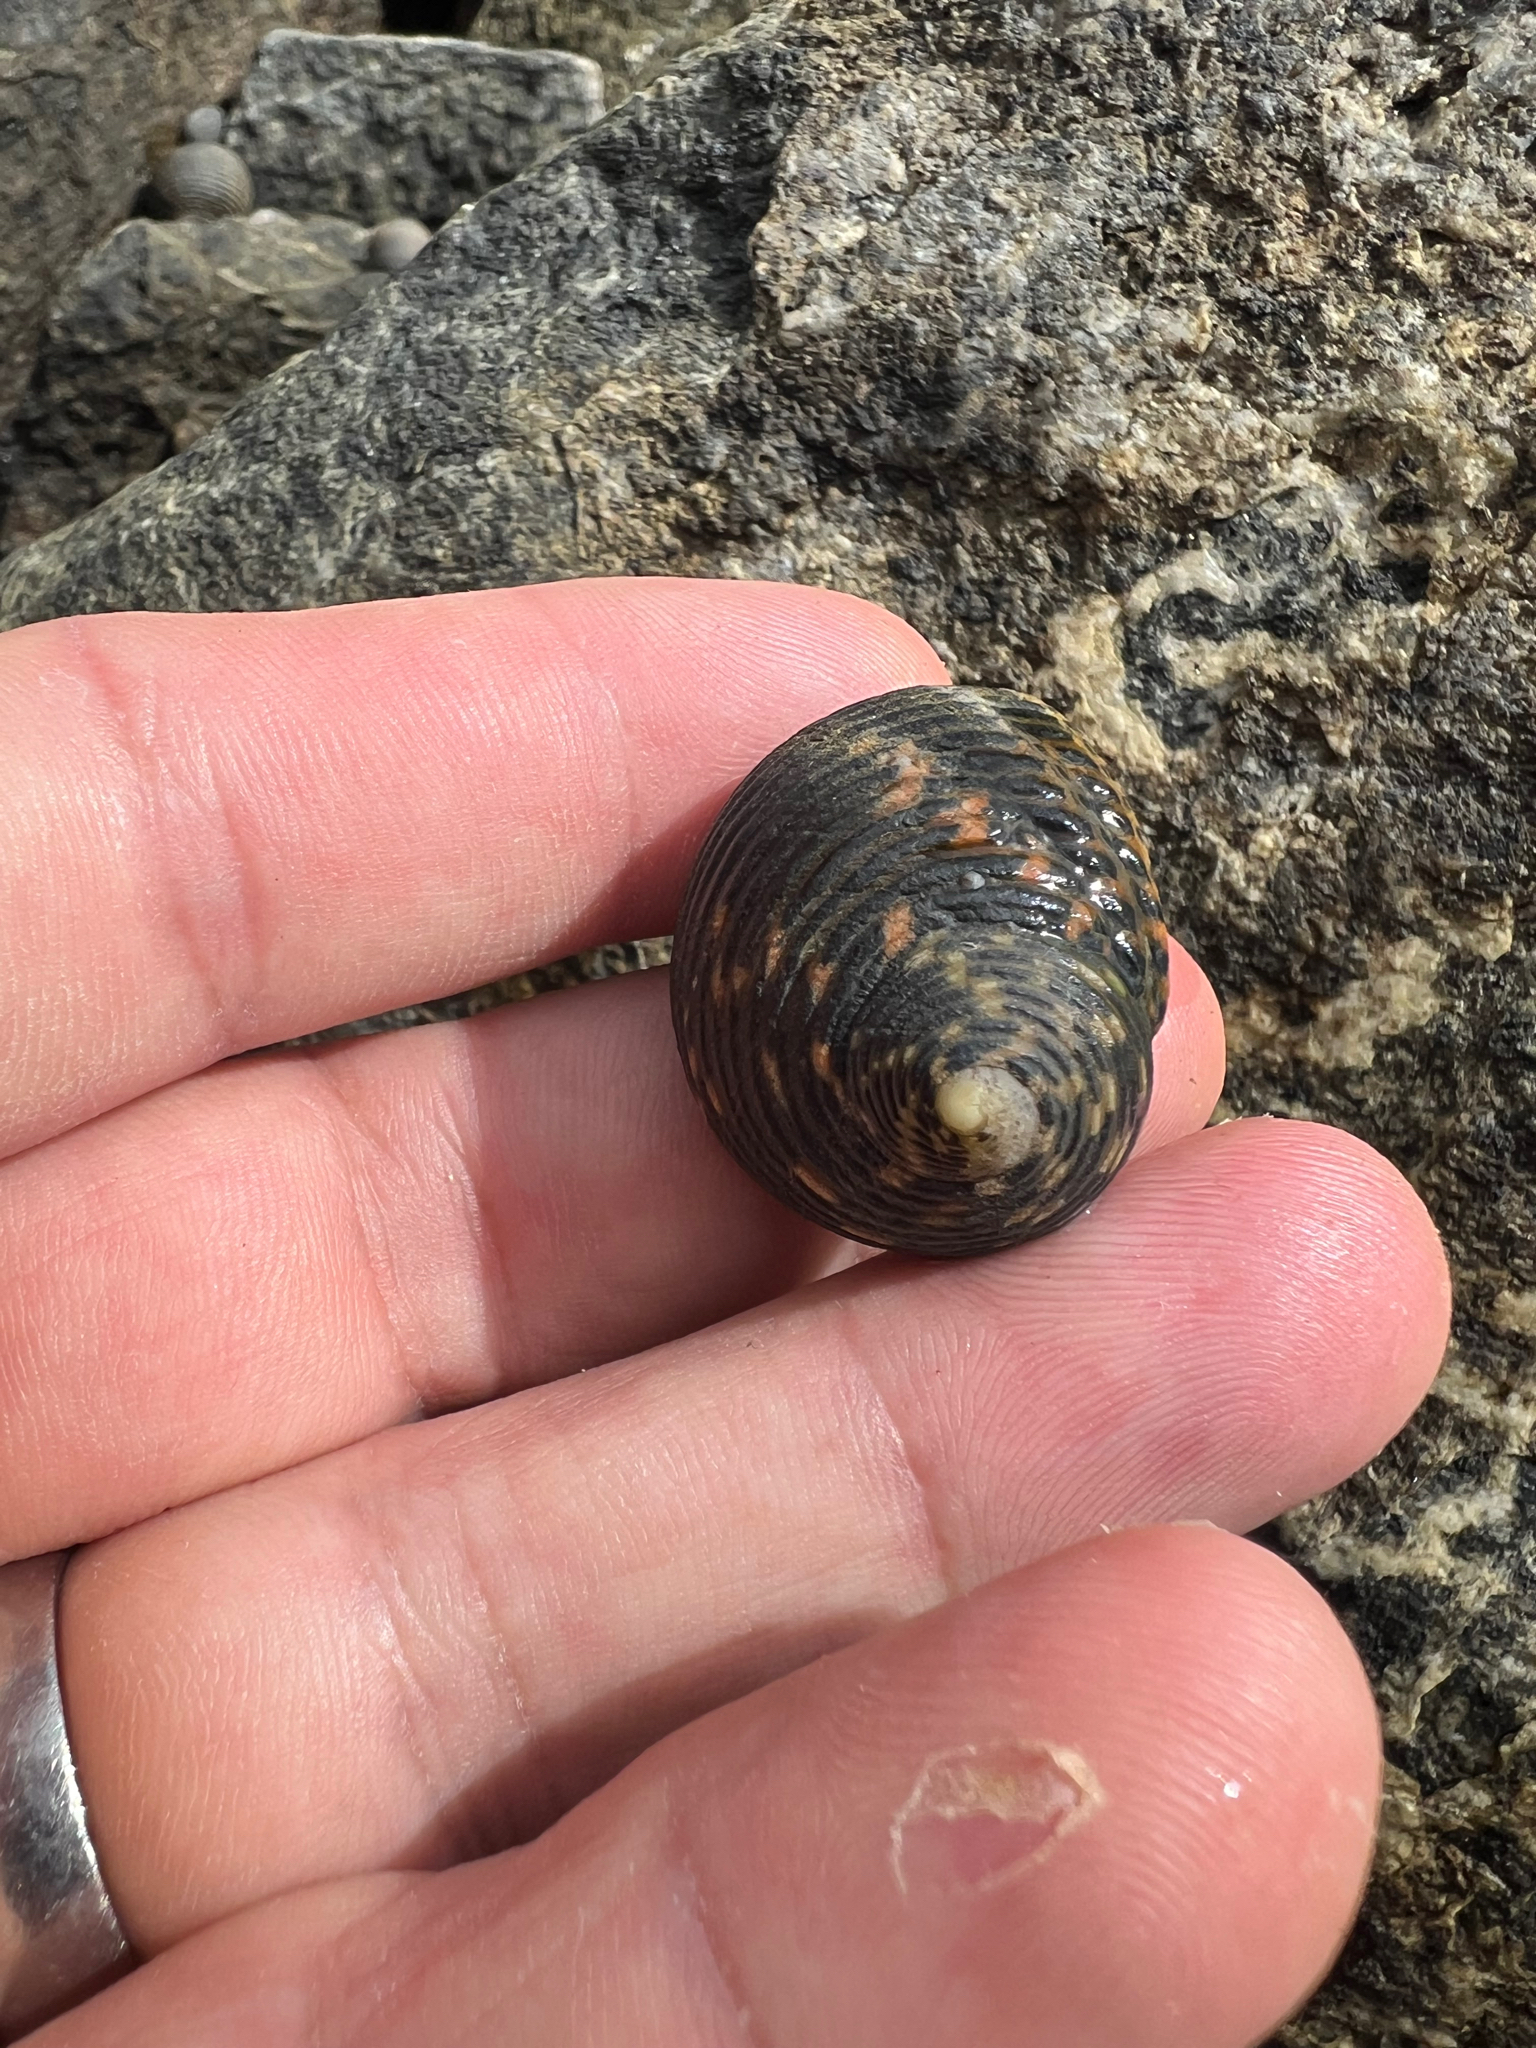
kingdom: Animalia
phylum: Mollusca
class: Gastropoda
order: Cycloneritida
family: Neritidae
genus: Nerita
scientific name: Nerita scabricosta
